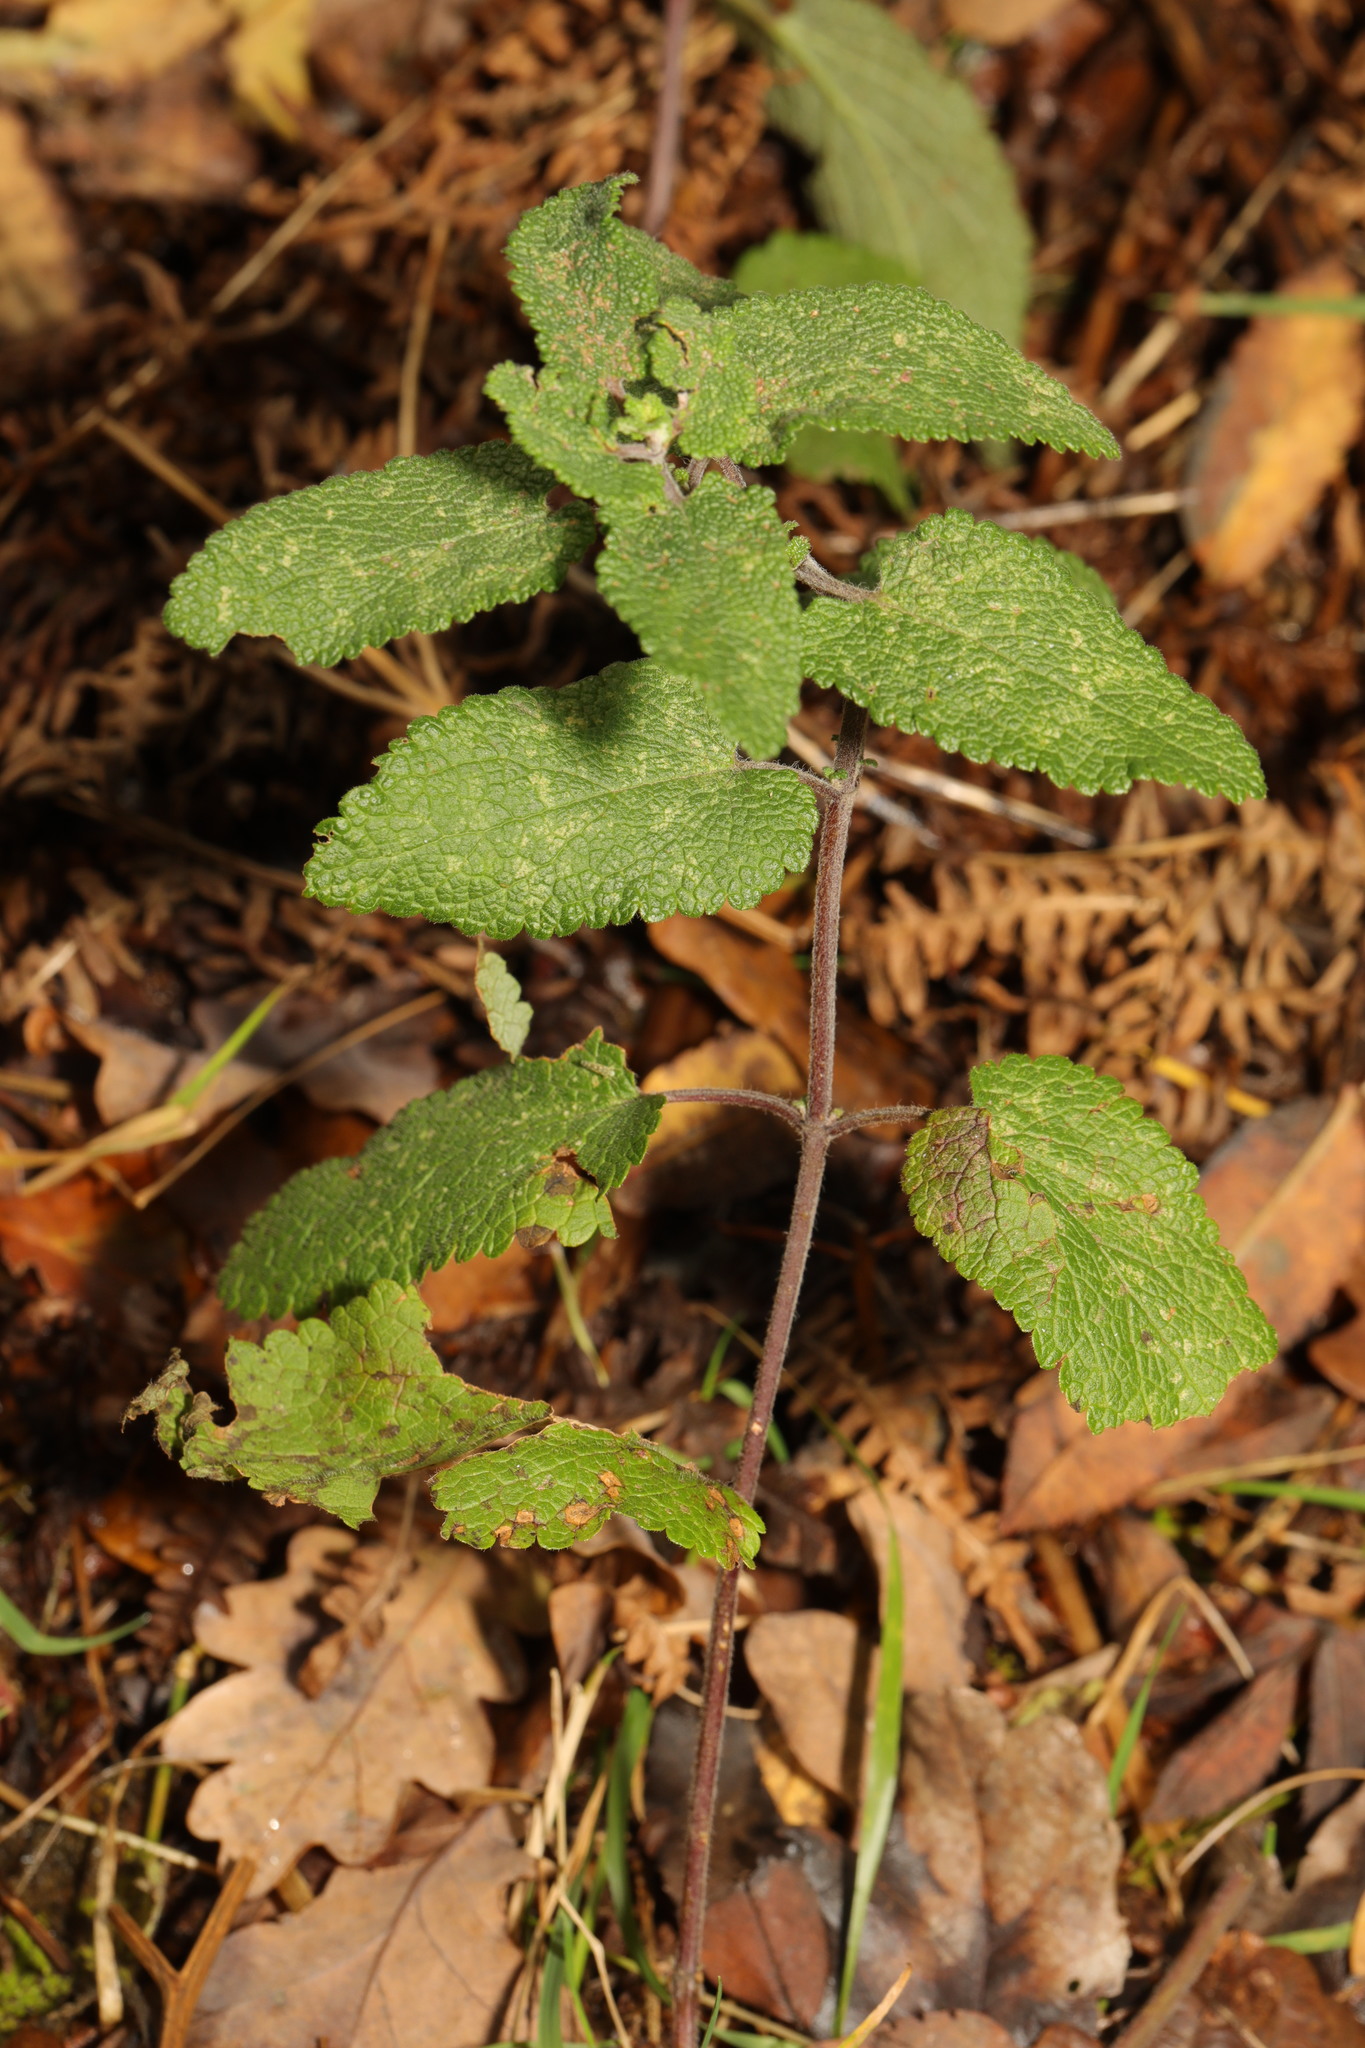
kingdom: Plantae
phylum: Tracheophyta
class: Magnoliopsida
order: Lamiales
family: Lamiaceae
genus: Teucrium
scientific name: Teucrium scorodonia
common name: Woodland germander
